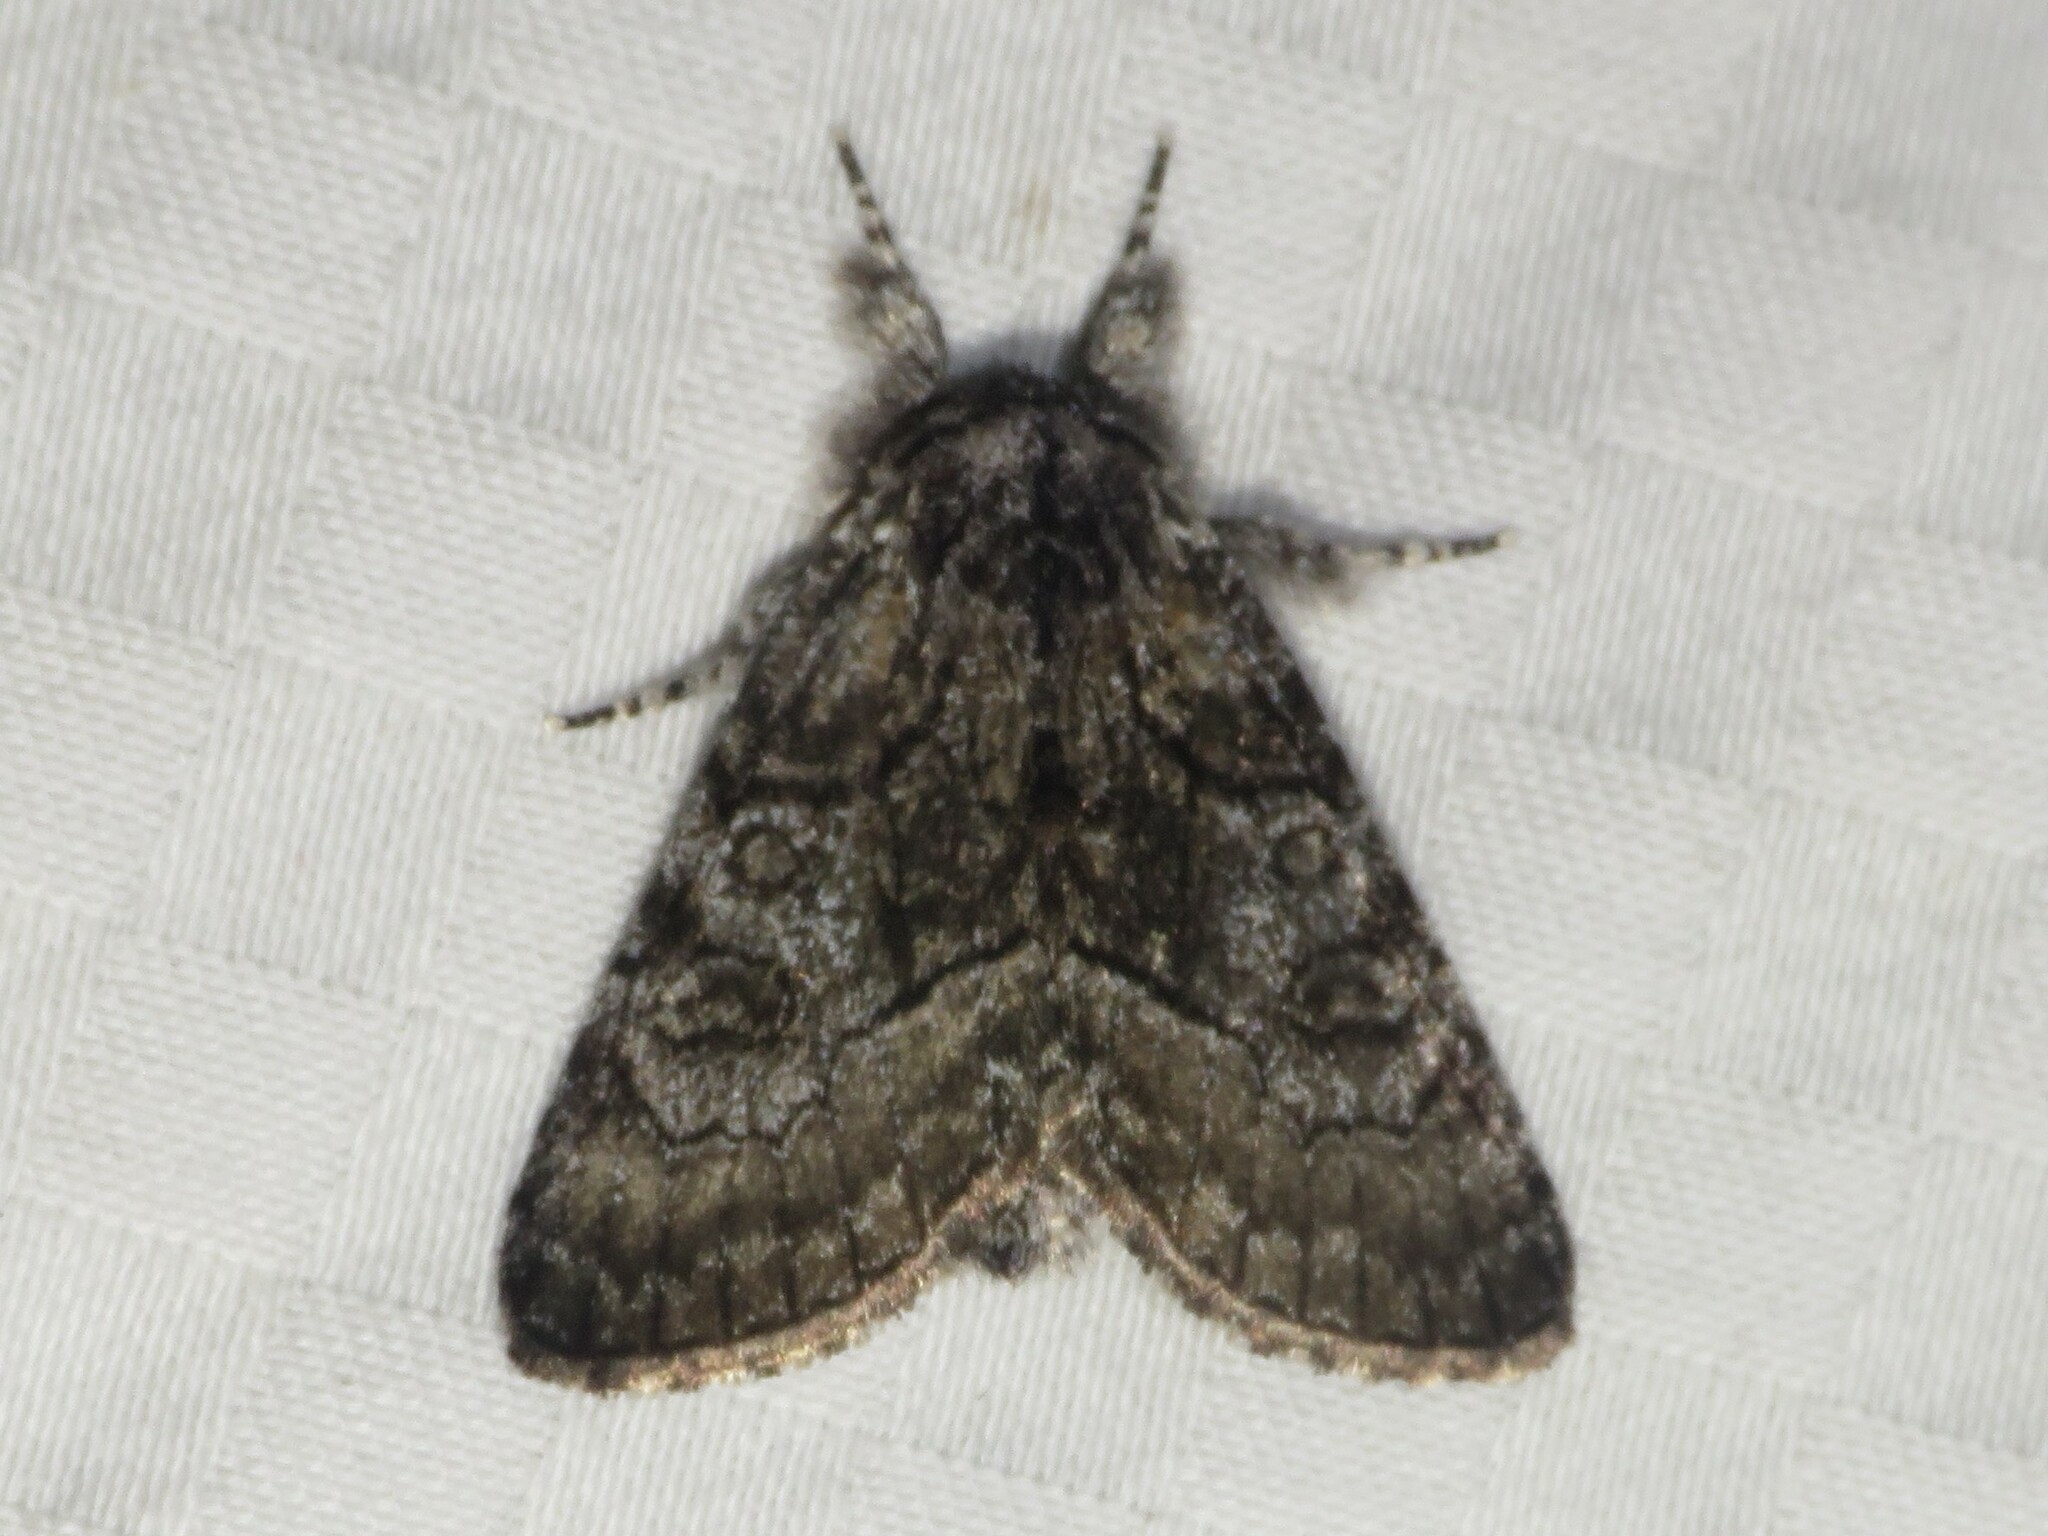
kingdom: Animalia
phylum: Arthropoda
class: Insecta
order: Lepidoptera
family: Noctuidae
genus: Raphia
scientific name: Raphia frater
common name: Brother
